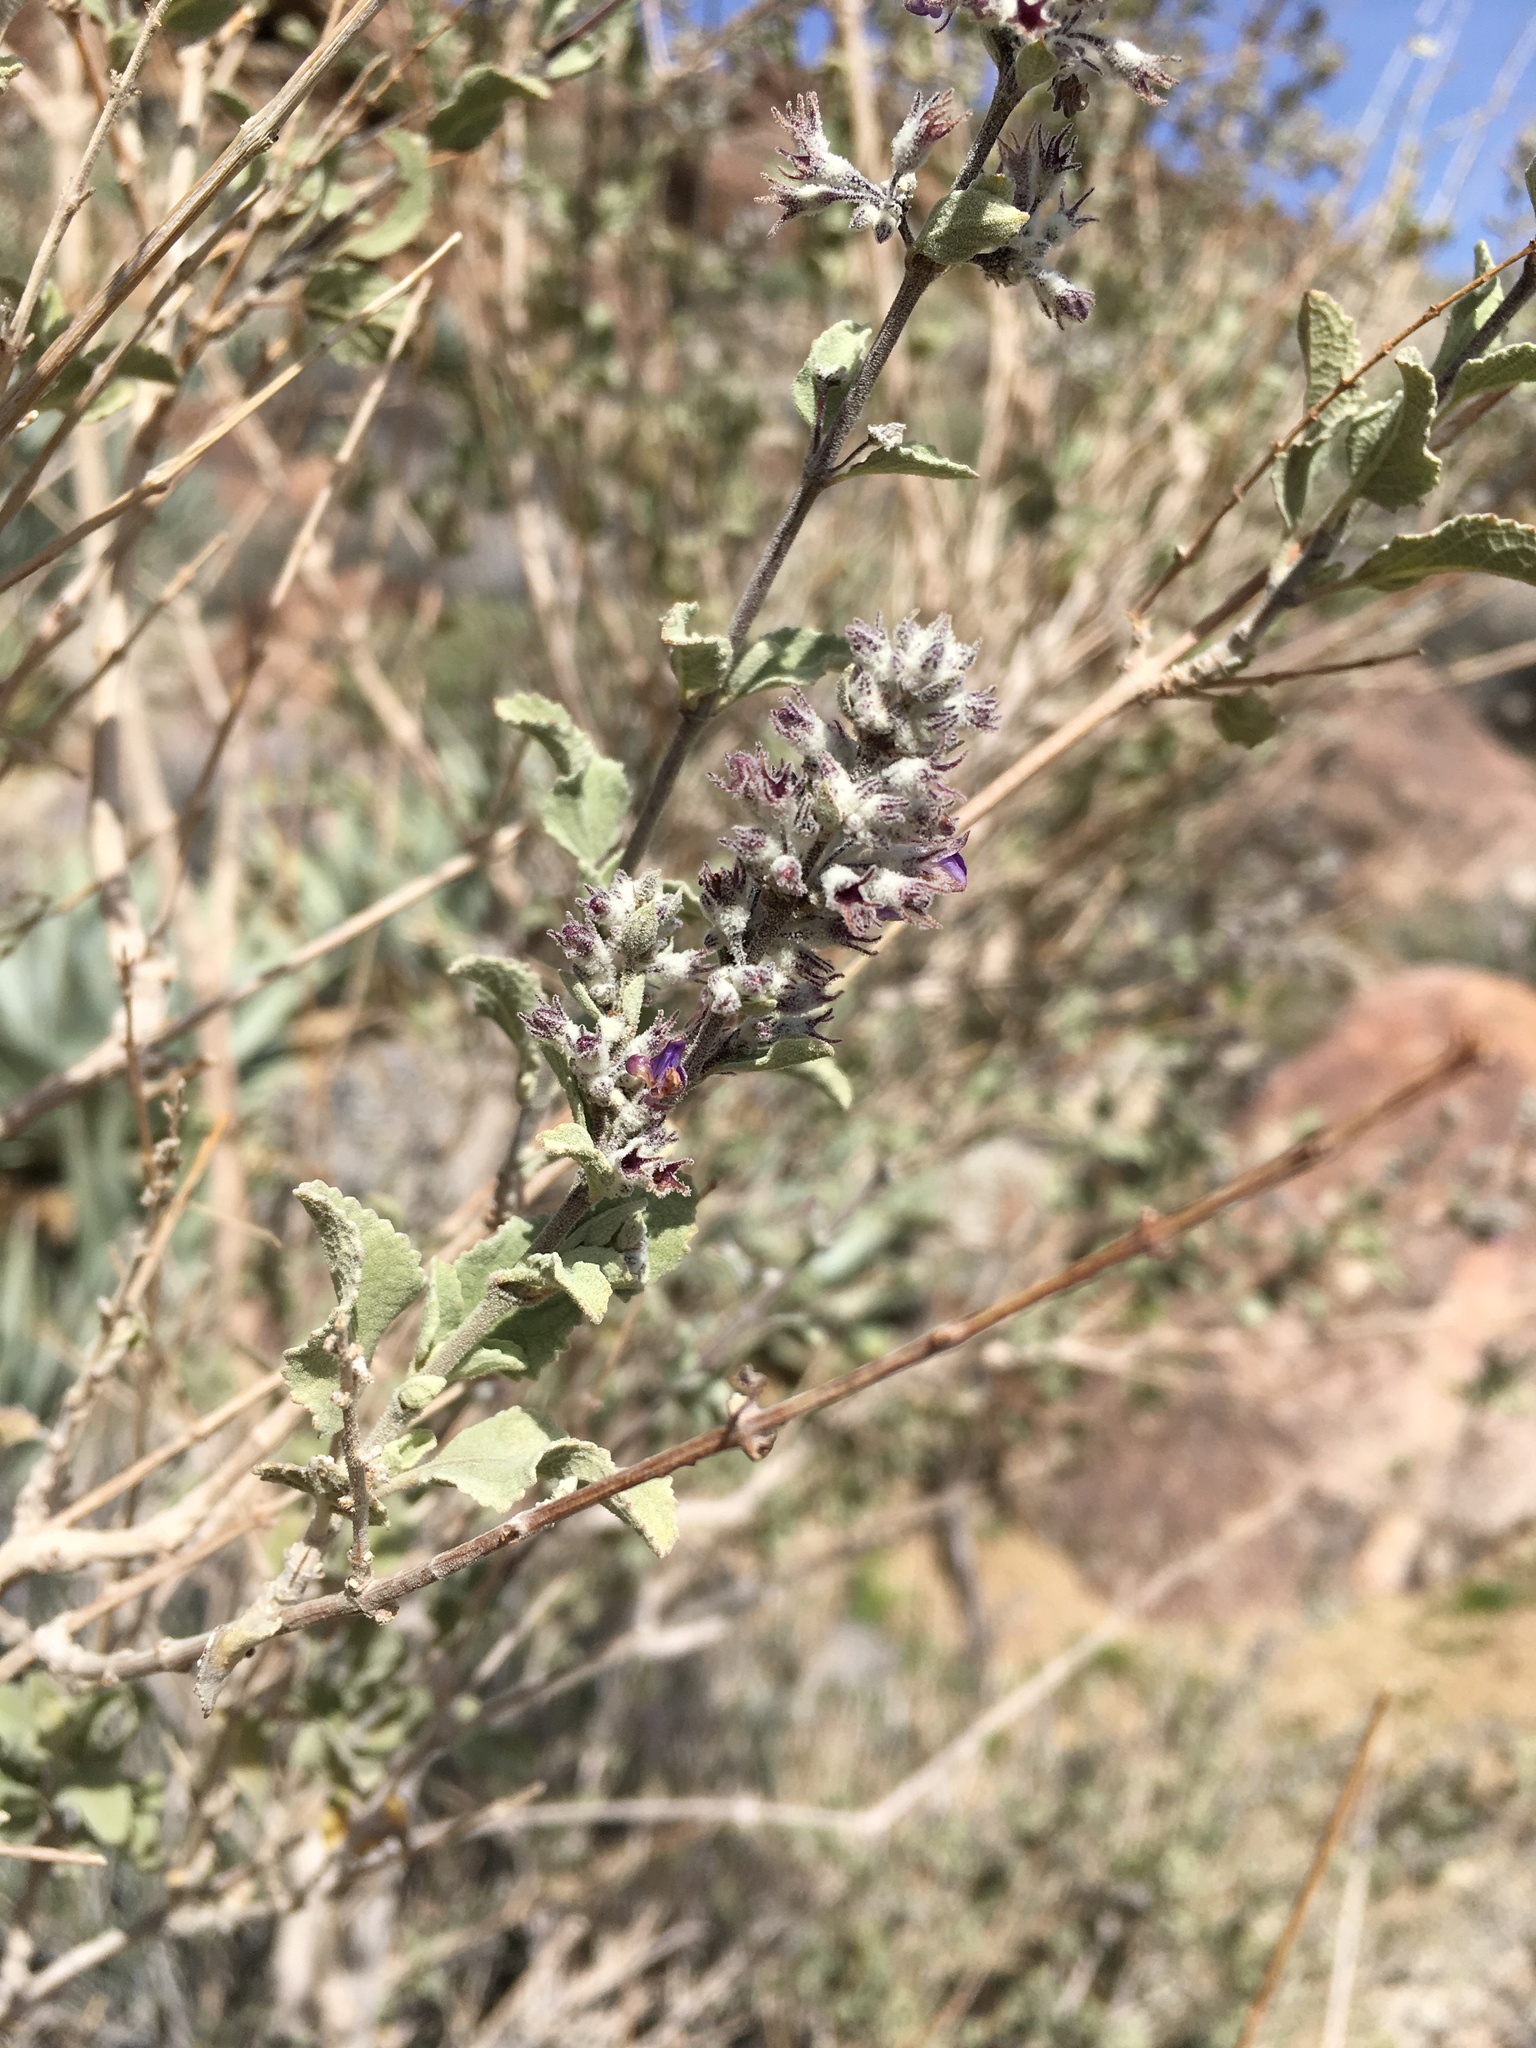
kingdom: Plantae
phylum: Tracheophyta
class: Magnoliopsida
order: Lamiales
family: Lamiaceae
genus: Condea
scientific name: Condea emoryi
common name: Chia
